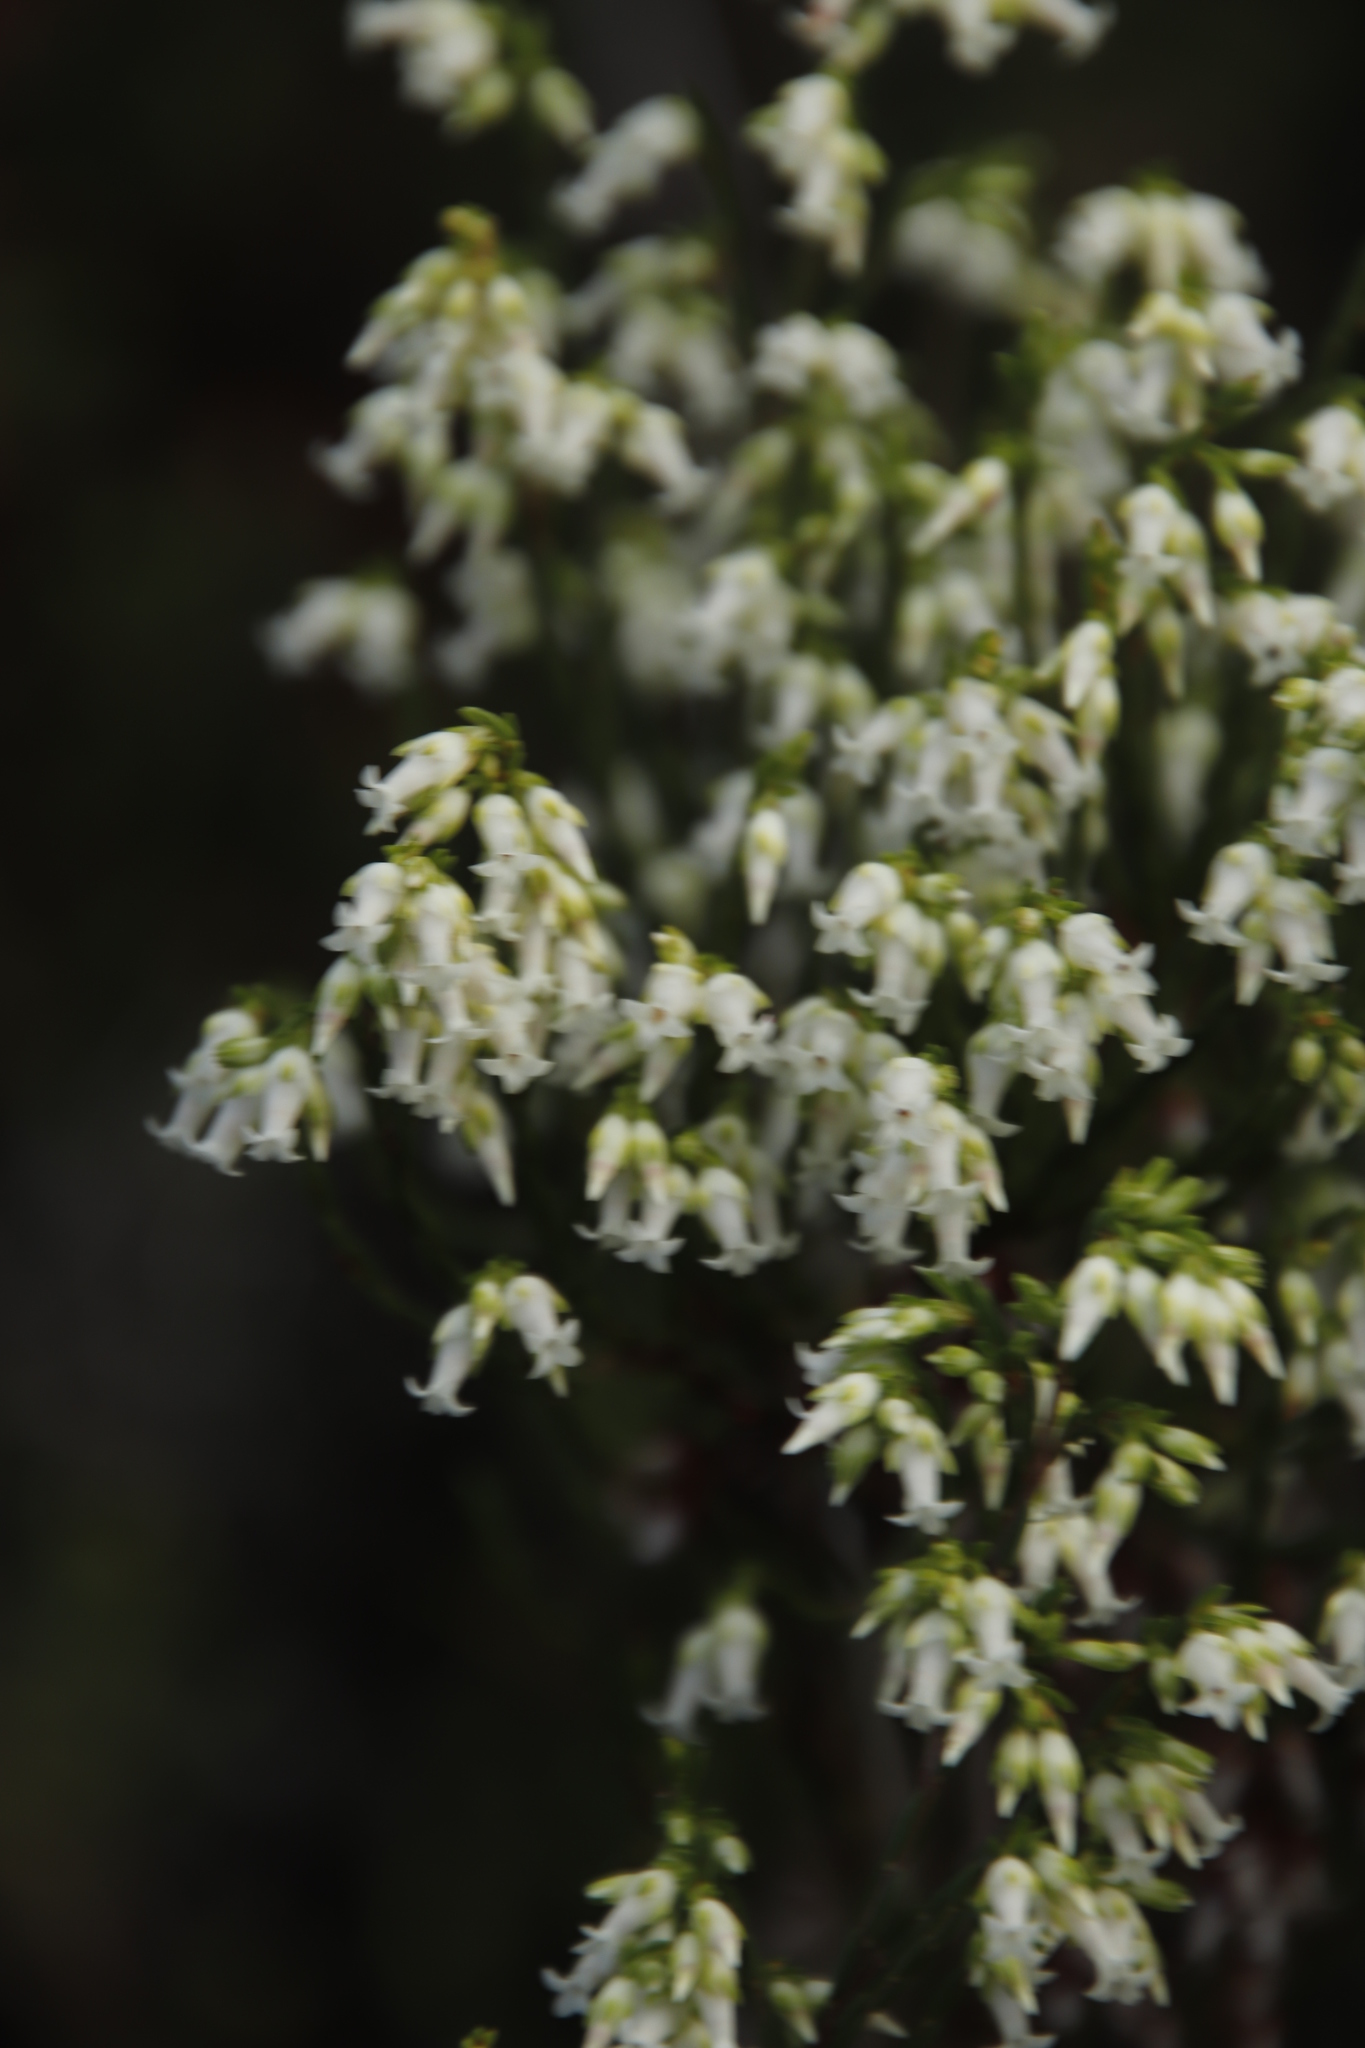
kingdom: Plantae
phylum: Tracheophyta
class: Magnoliopsida
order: Ericales
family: Ericaceae
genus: Erica
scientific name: Erica lutea
